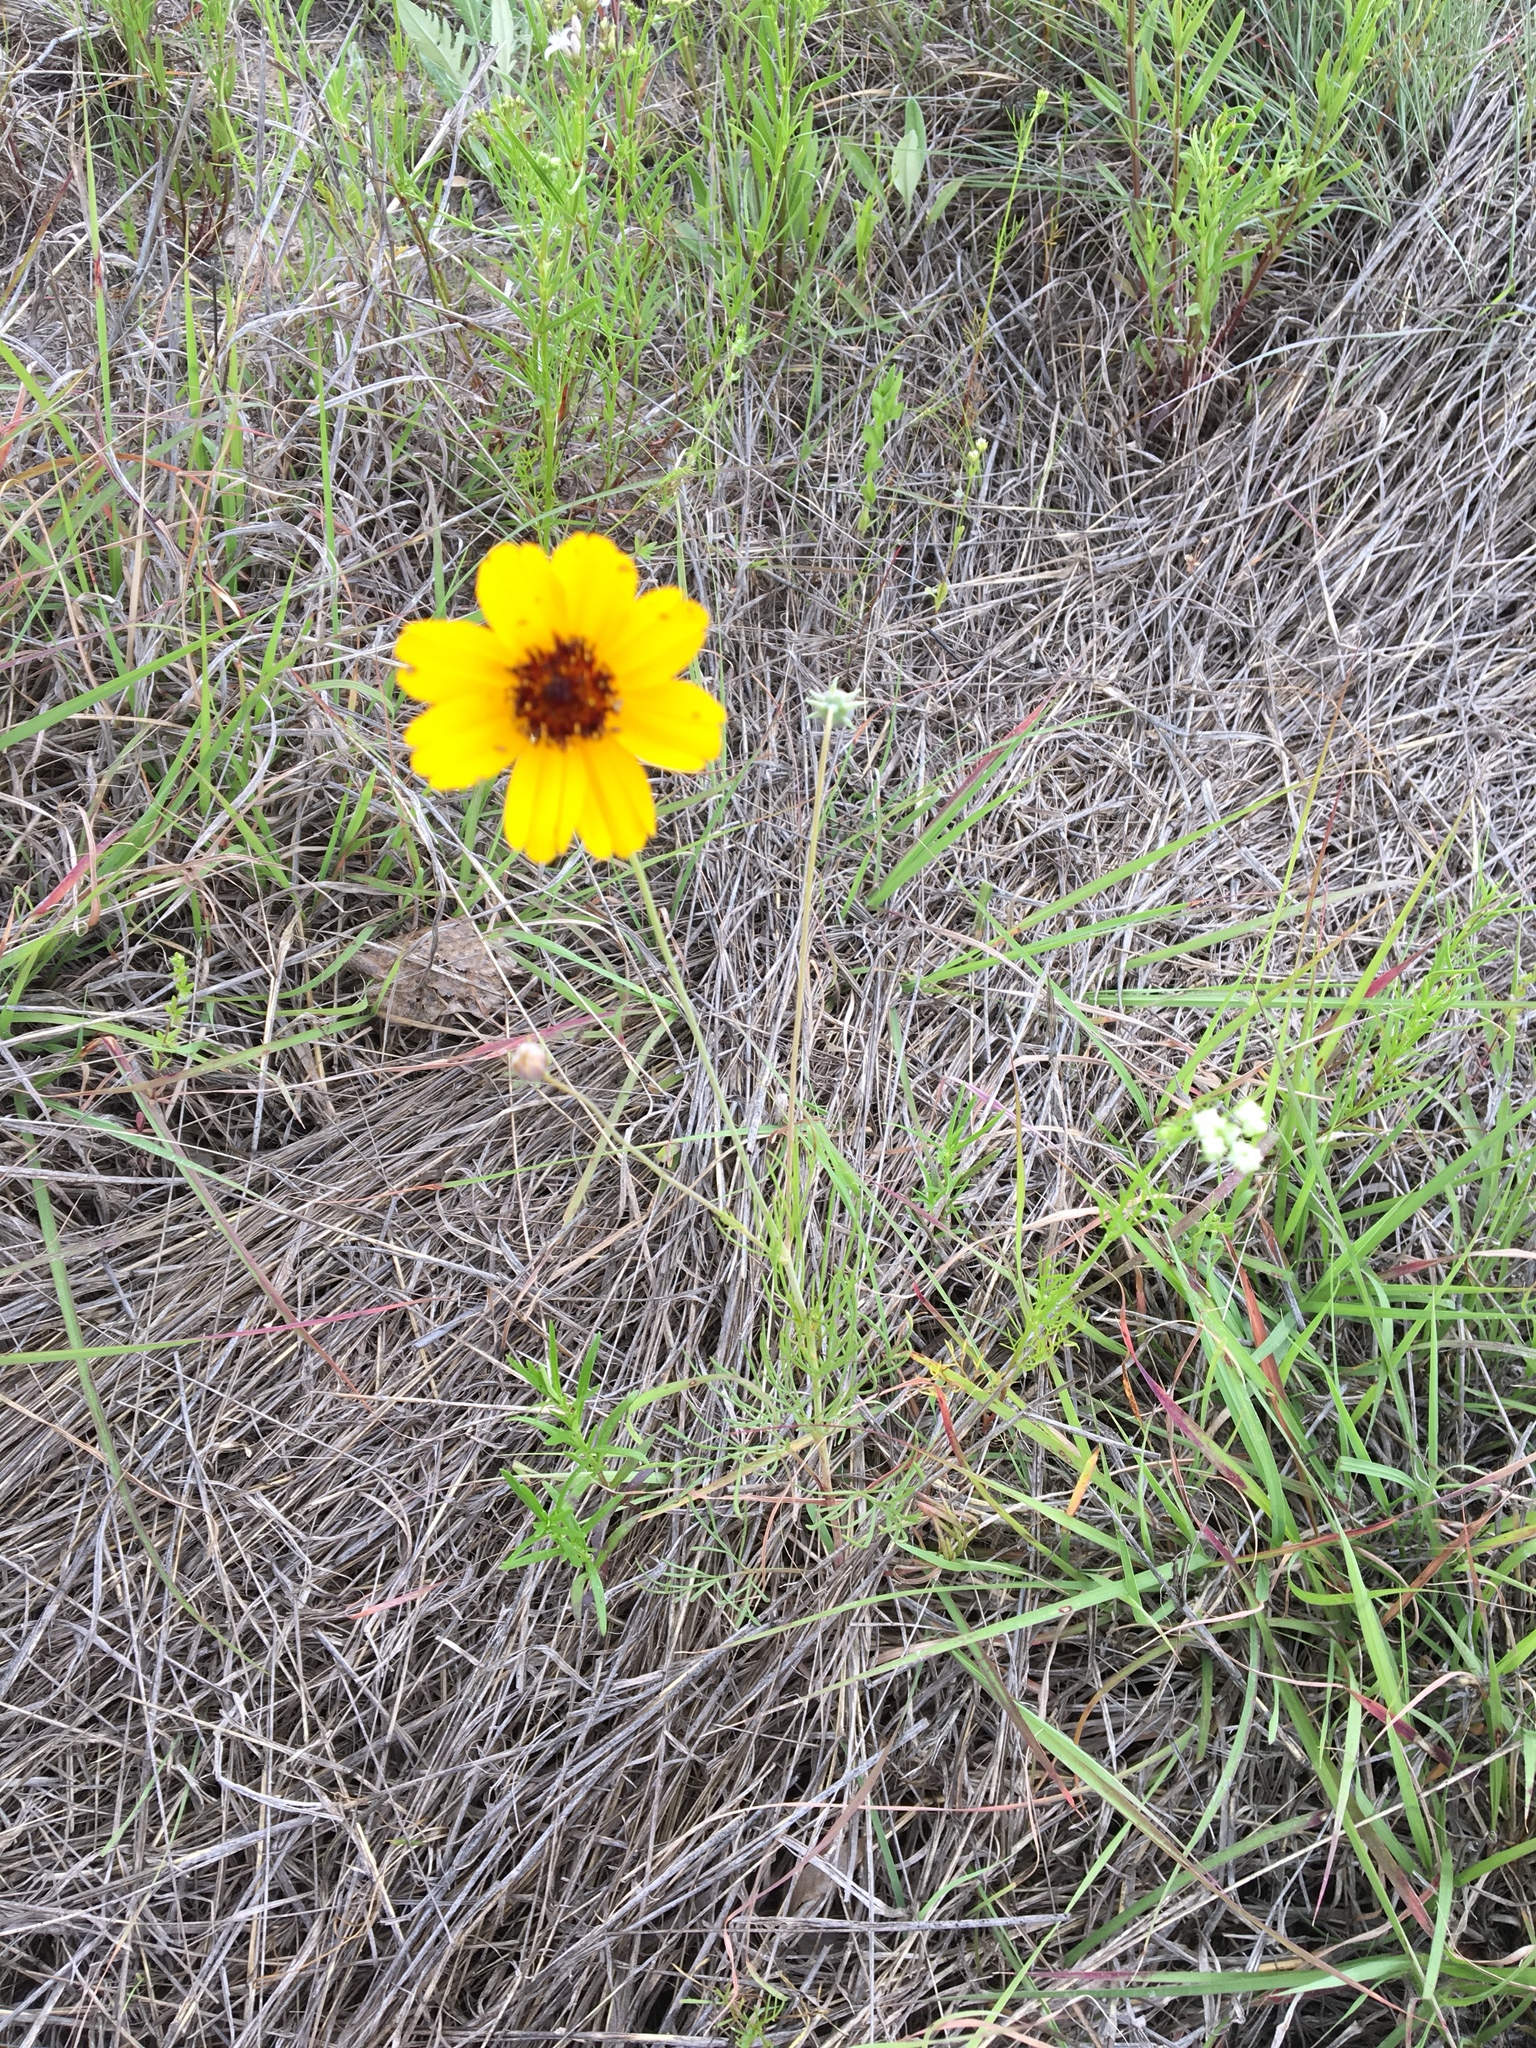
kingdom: Plantae
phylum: Tracheophyta
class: Magnoliopsida
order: Asterales
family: Asteraceae
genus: Thelesperma
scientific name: Thelesperma filifolium
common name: Stiff greenthread
